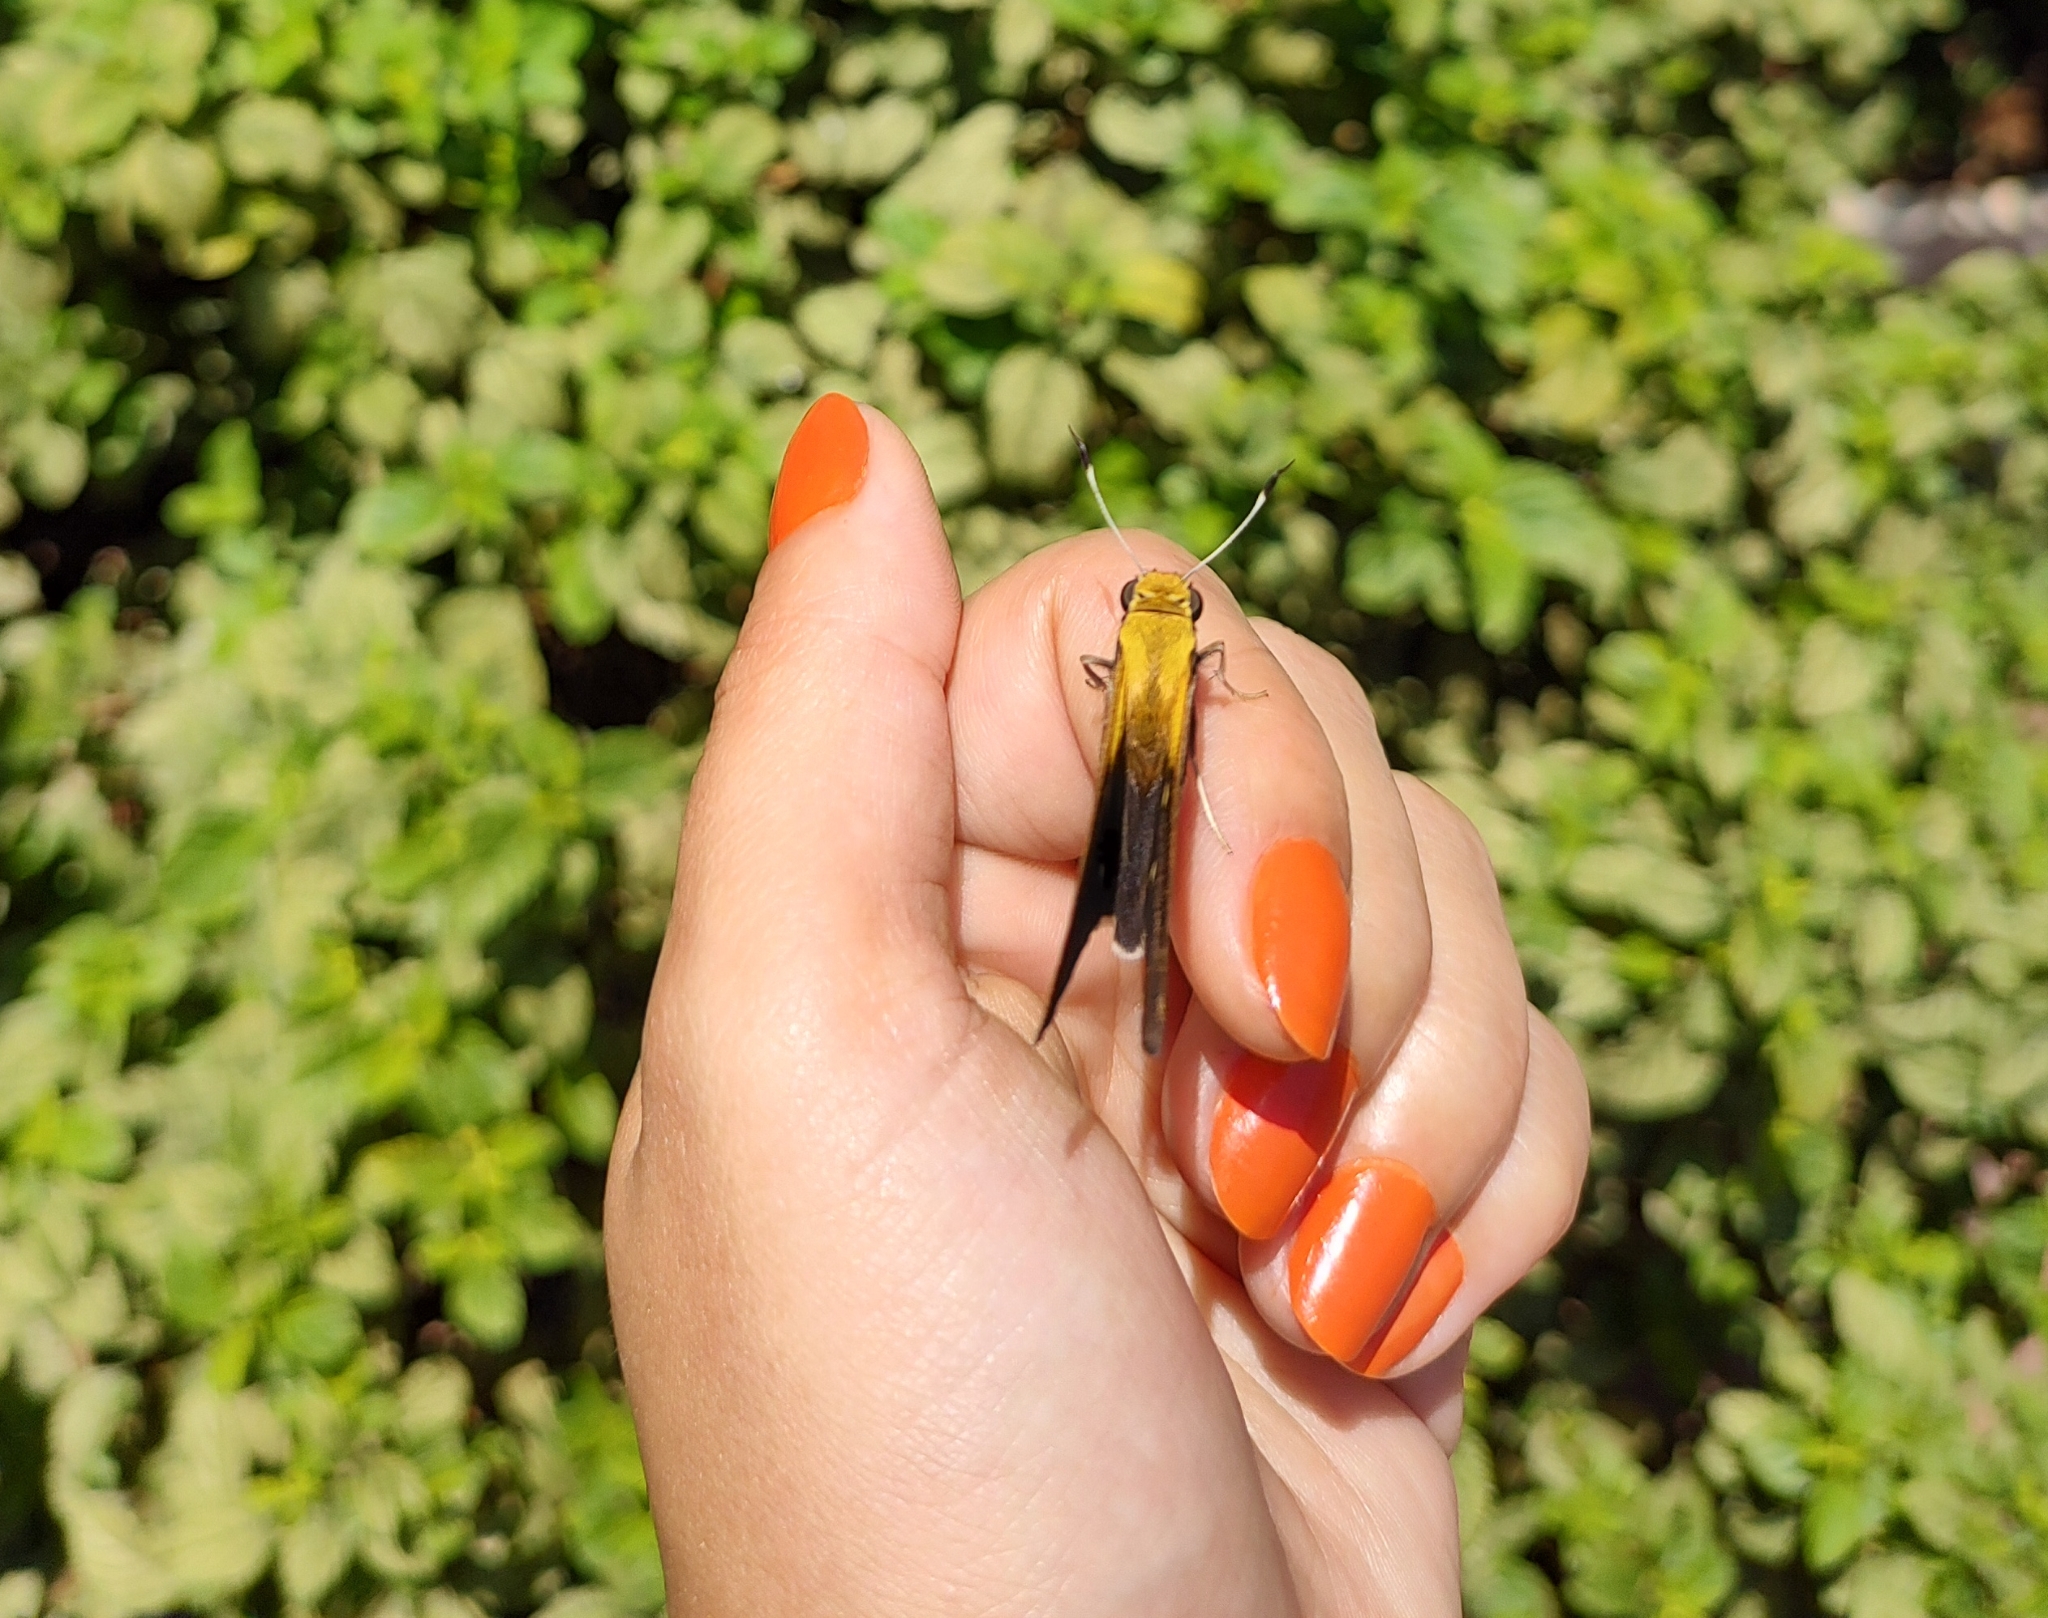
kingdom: Animalia
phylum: Arthropoda
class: Insecta
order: Lepidoptera
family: Hesperiidae
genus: Proteides
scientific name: Proteides mercurius
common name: Mercurial skipper
